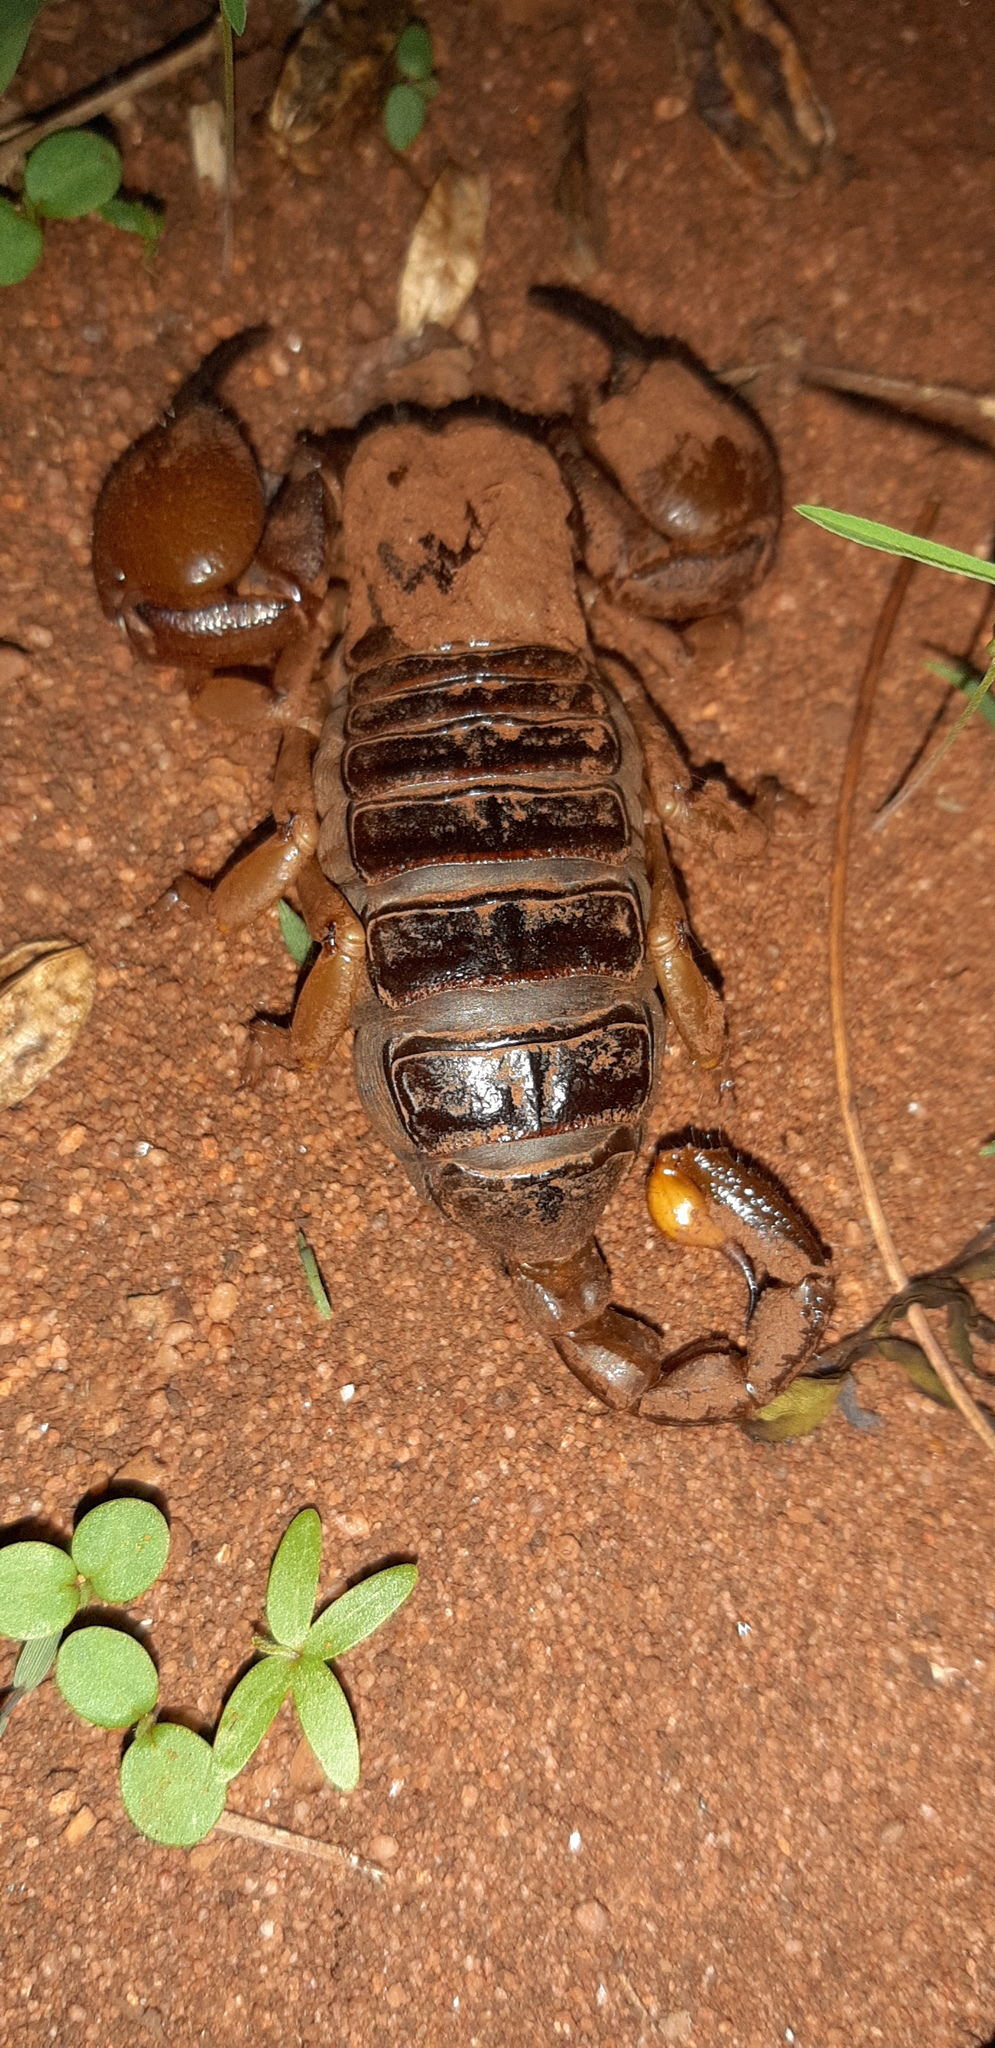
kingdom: Animalia
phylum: Arthropoda
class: Arachnida
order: Scorpiones
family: Scorpionidae
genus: Opistophthalmus
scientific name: Opistophthalmus glabrifrons
